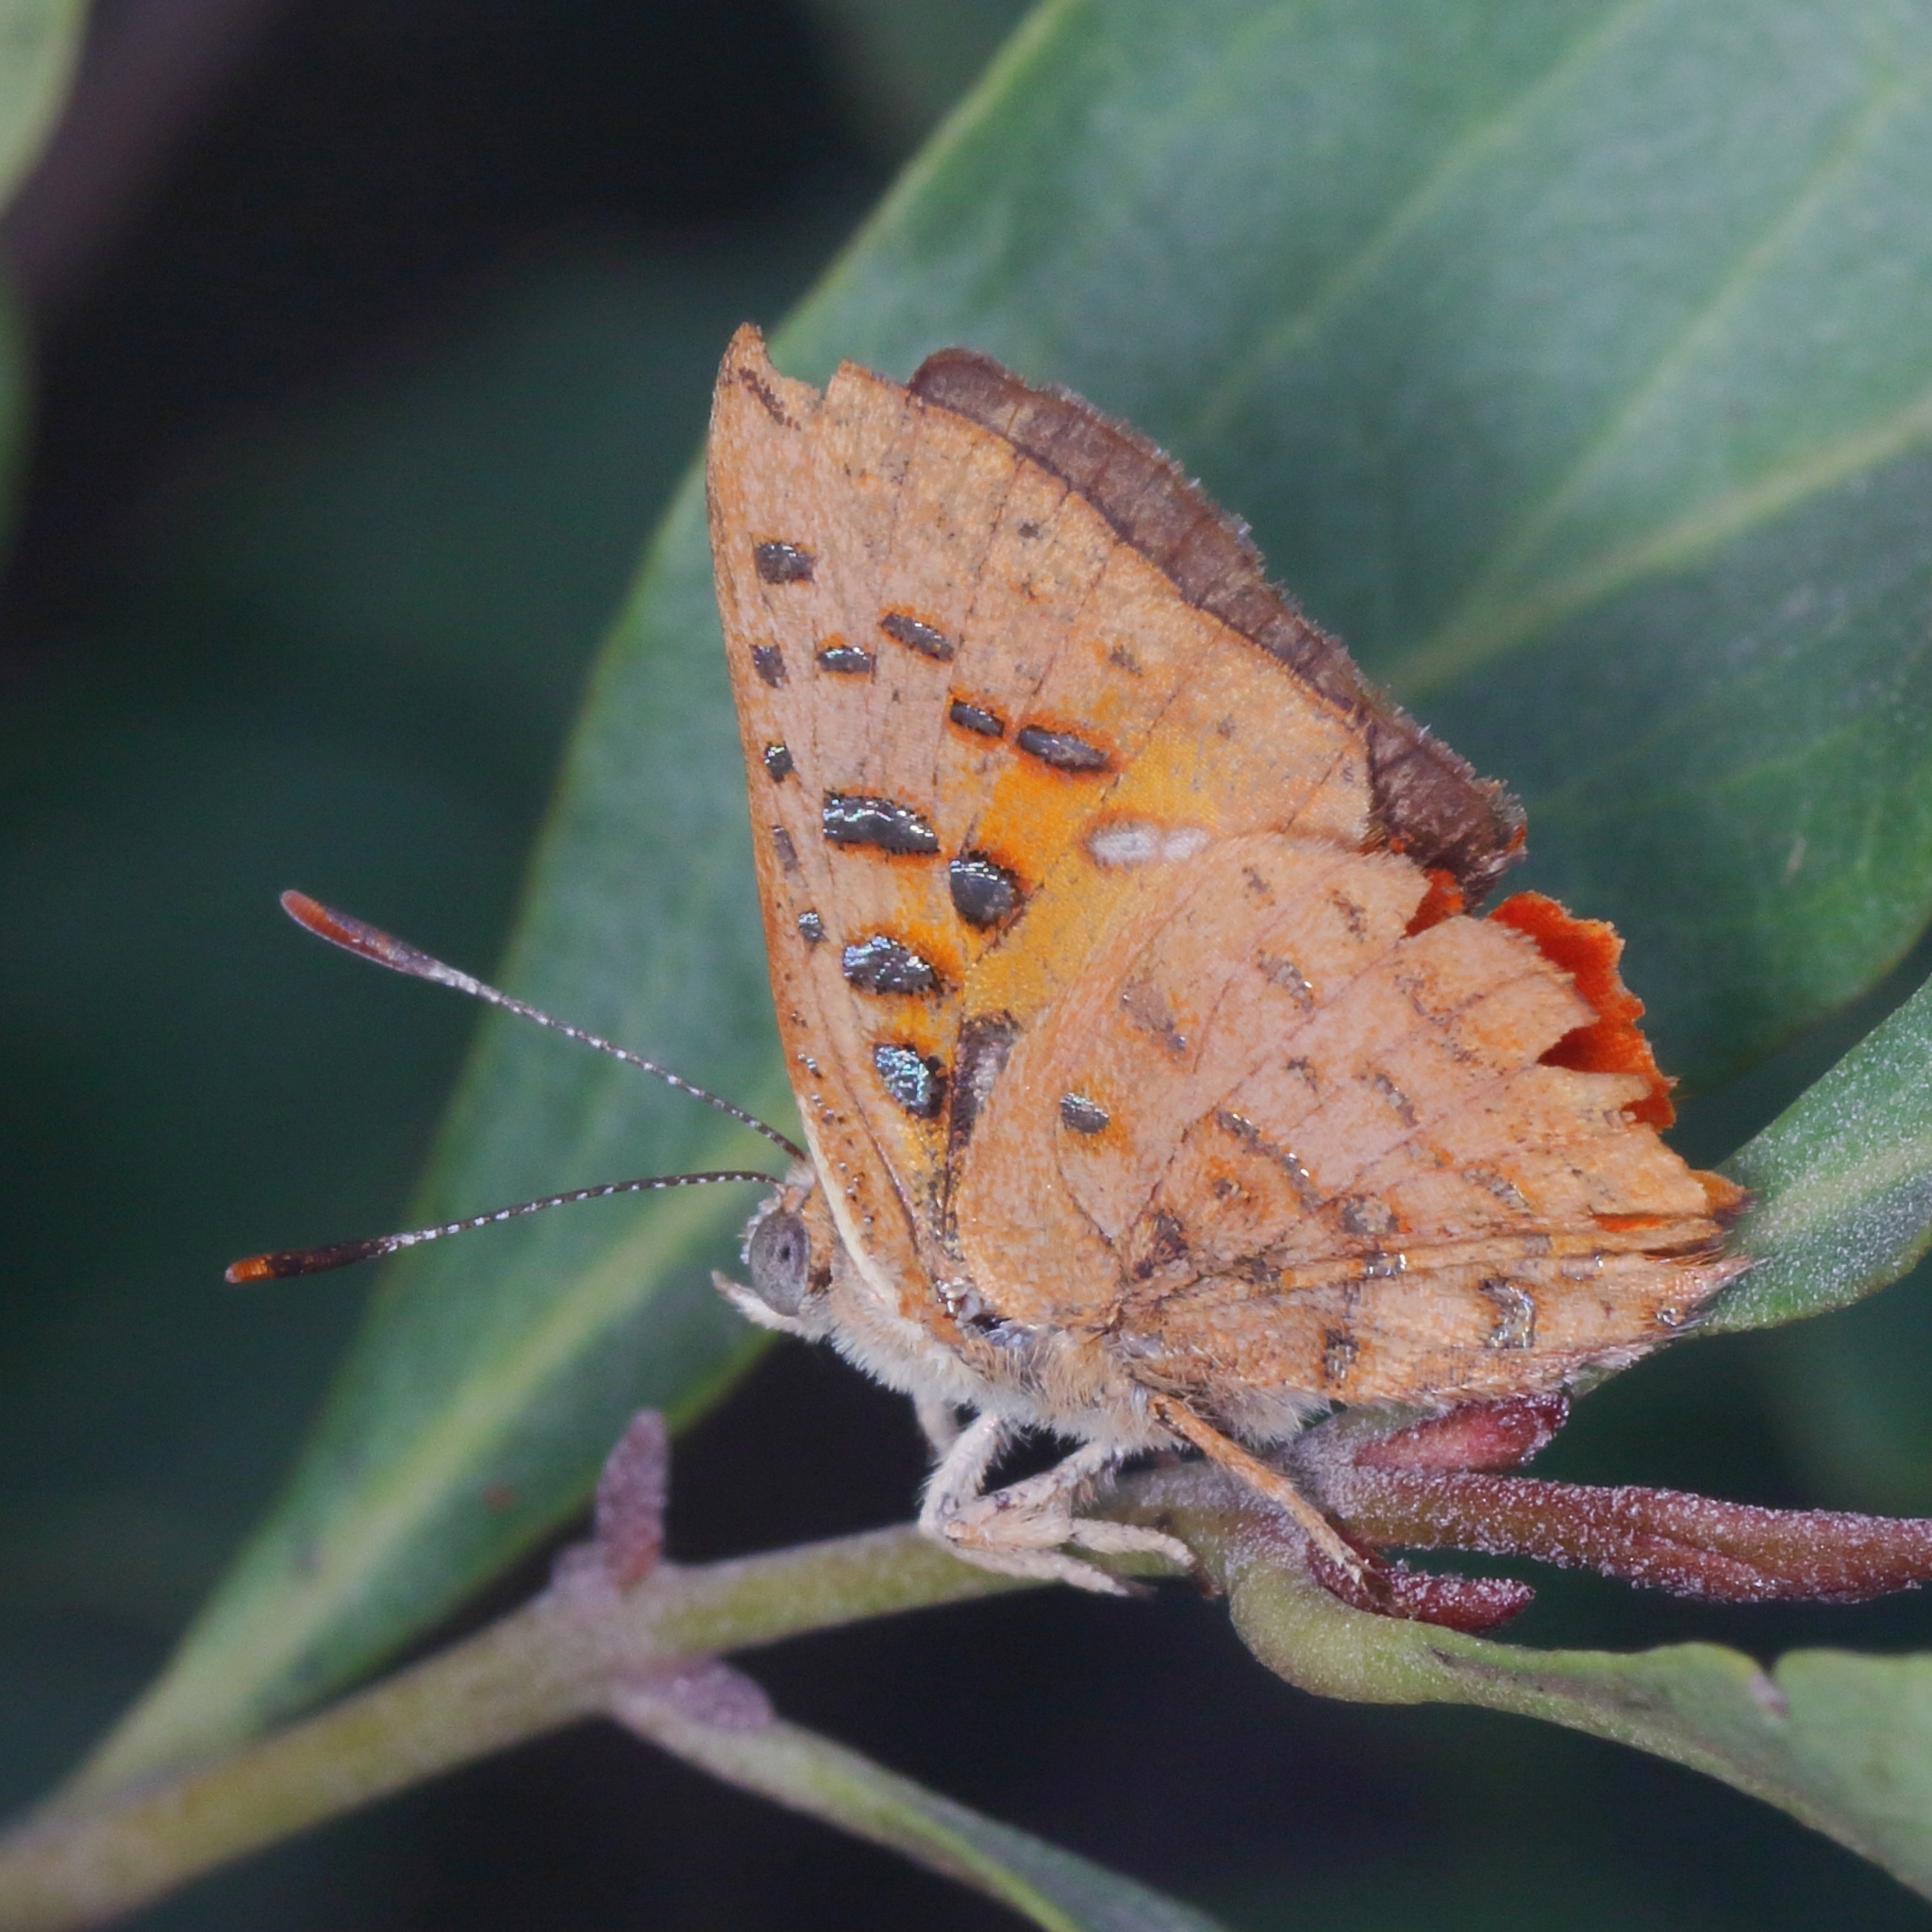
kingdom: Animalia
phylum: Arthropoda
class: Insecta
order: Lepidoptera
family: Lycaenidae
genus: Axiocerses
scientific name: Axiocerses perion
